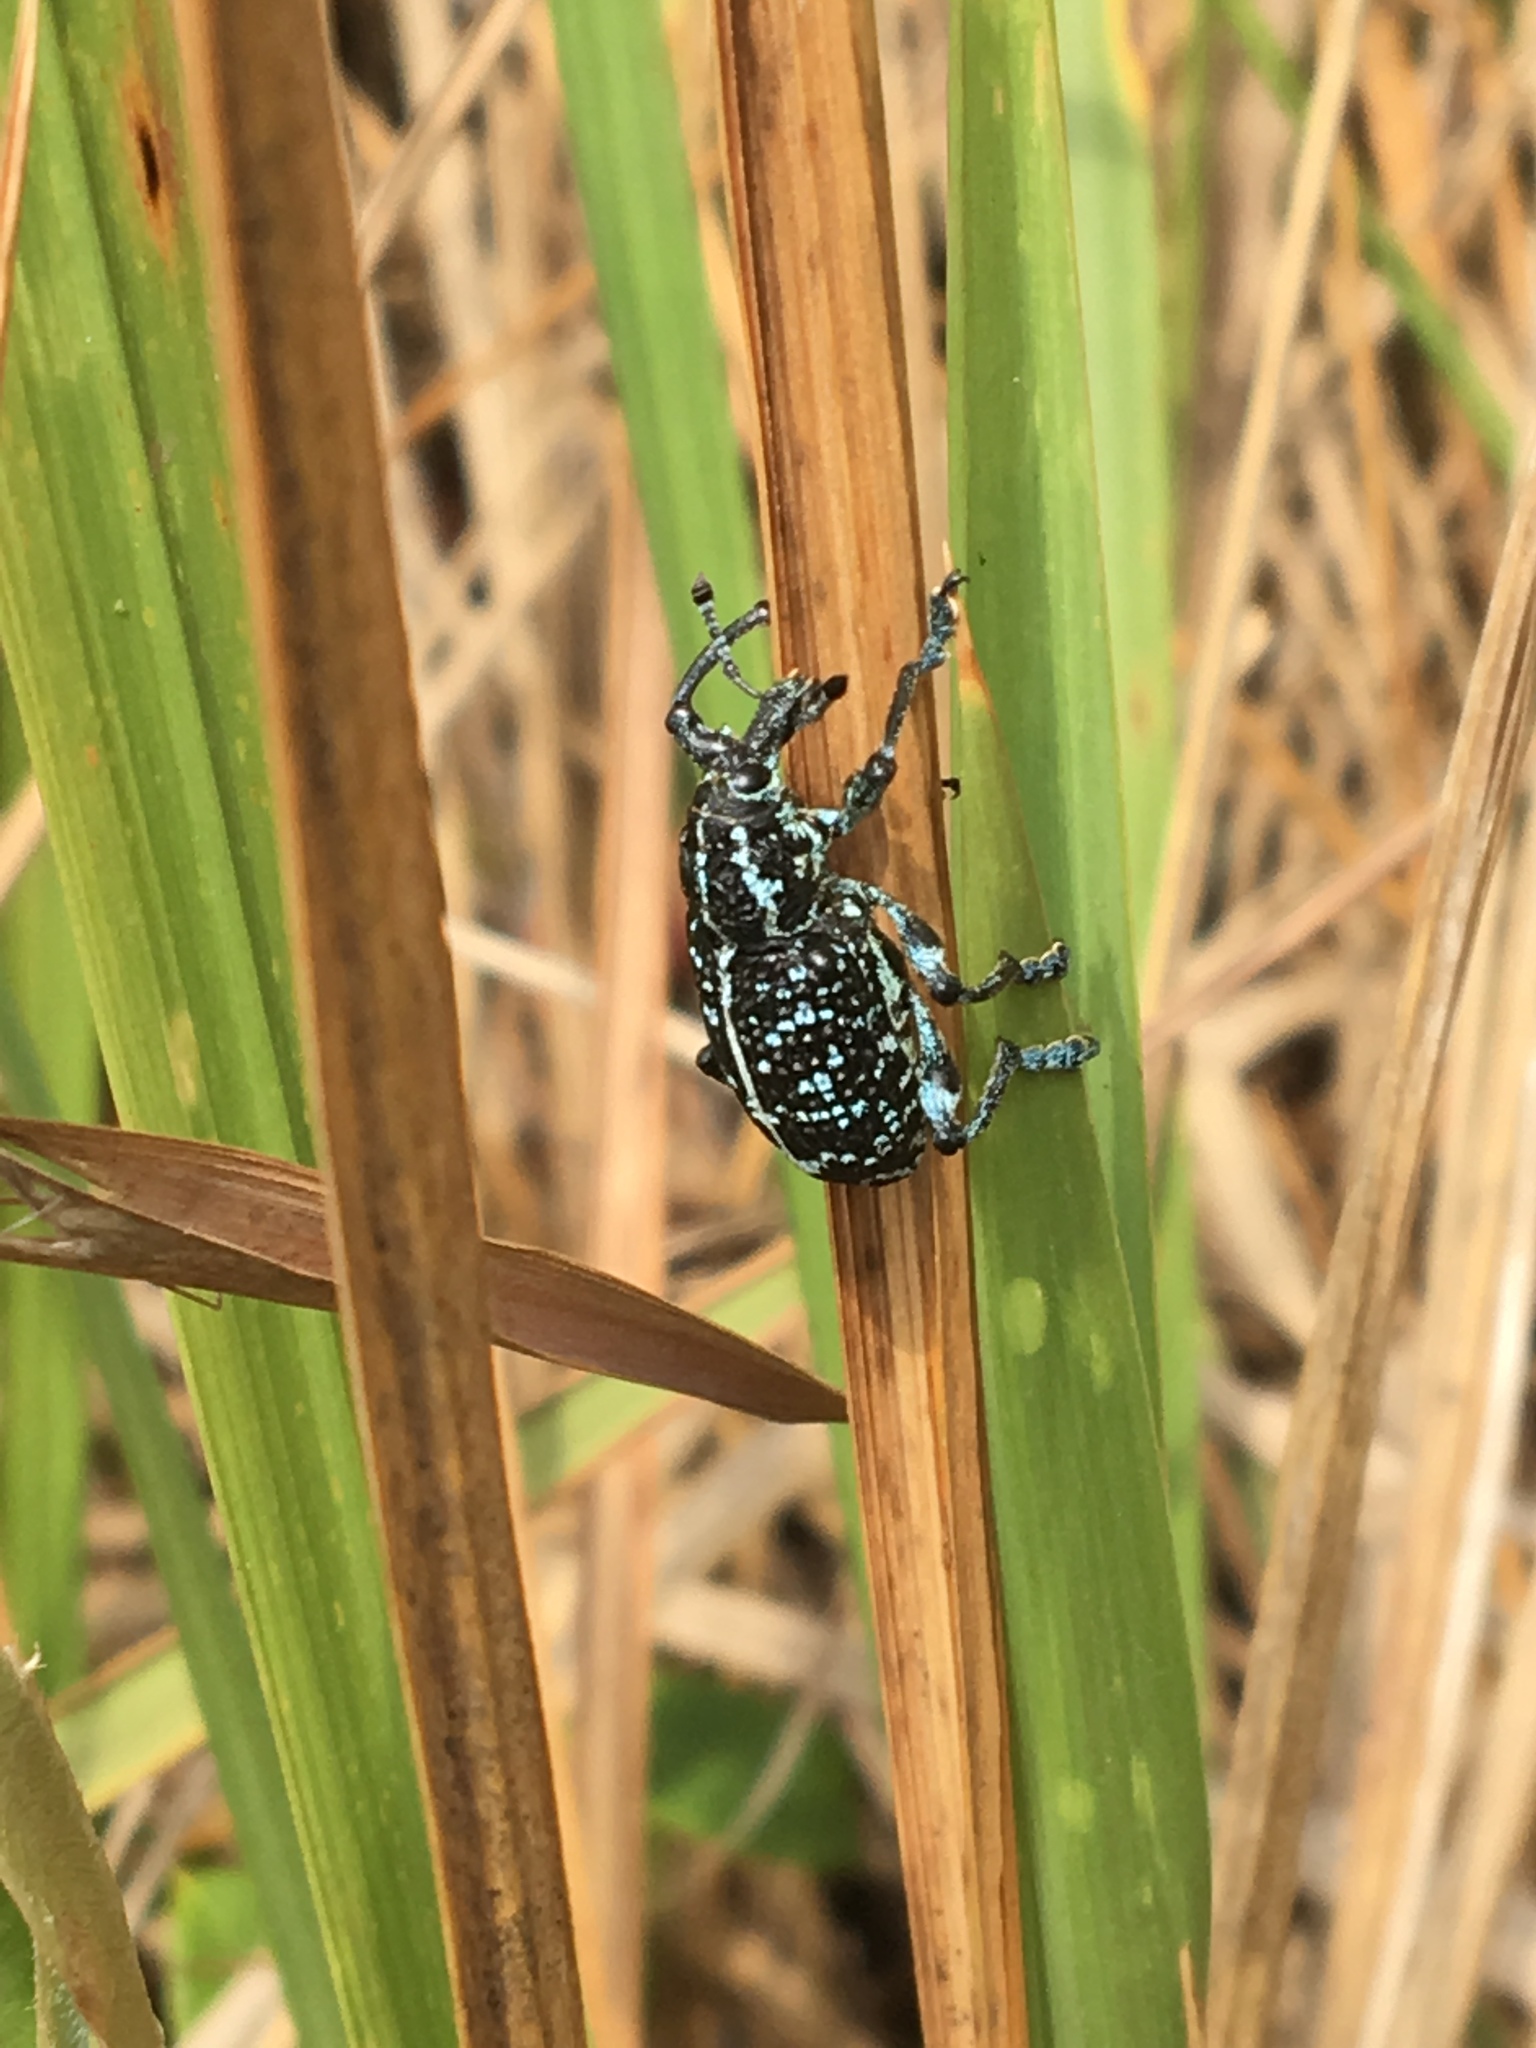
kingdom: Animalia
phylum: Arthropoda
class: Insecta
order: Coleoptera
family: Curculionidae
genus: Chrysolopus
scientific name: Chrysolopus spectabilis
